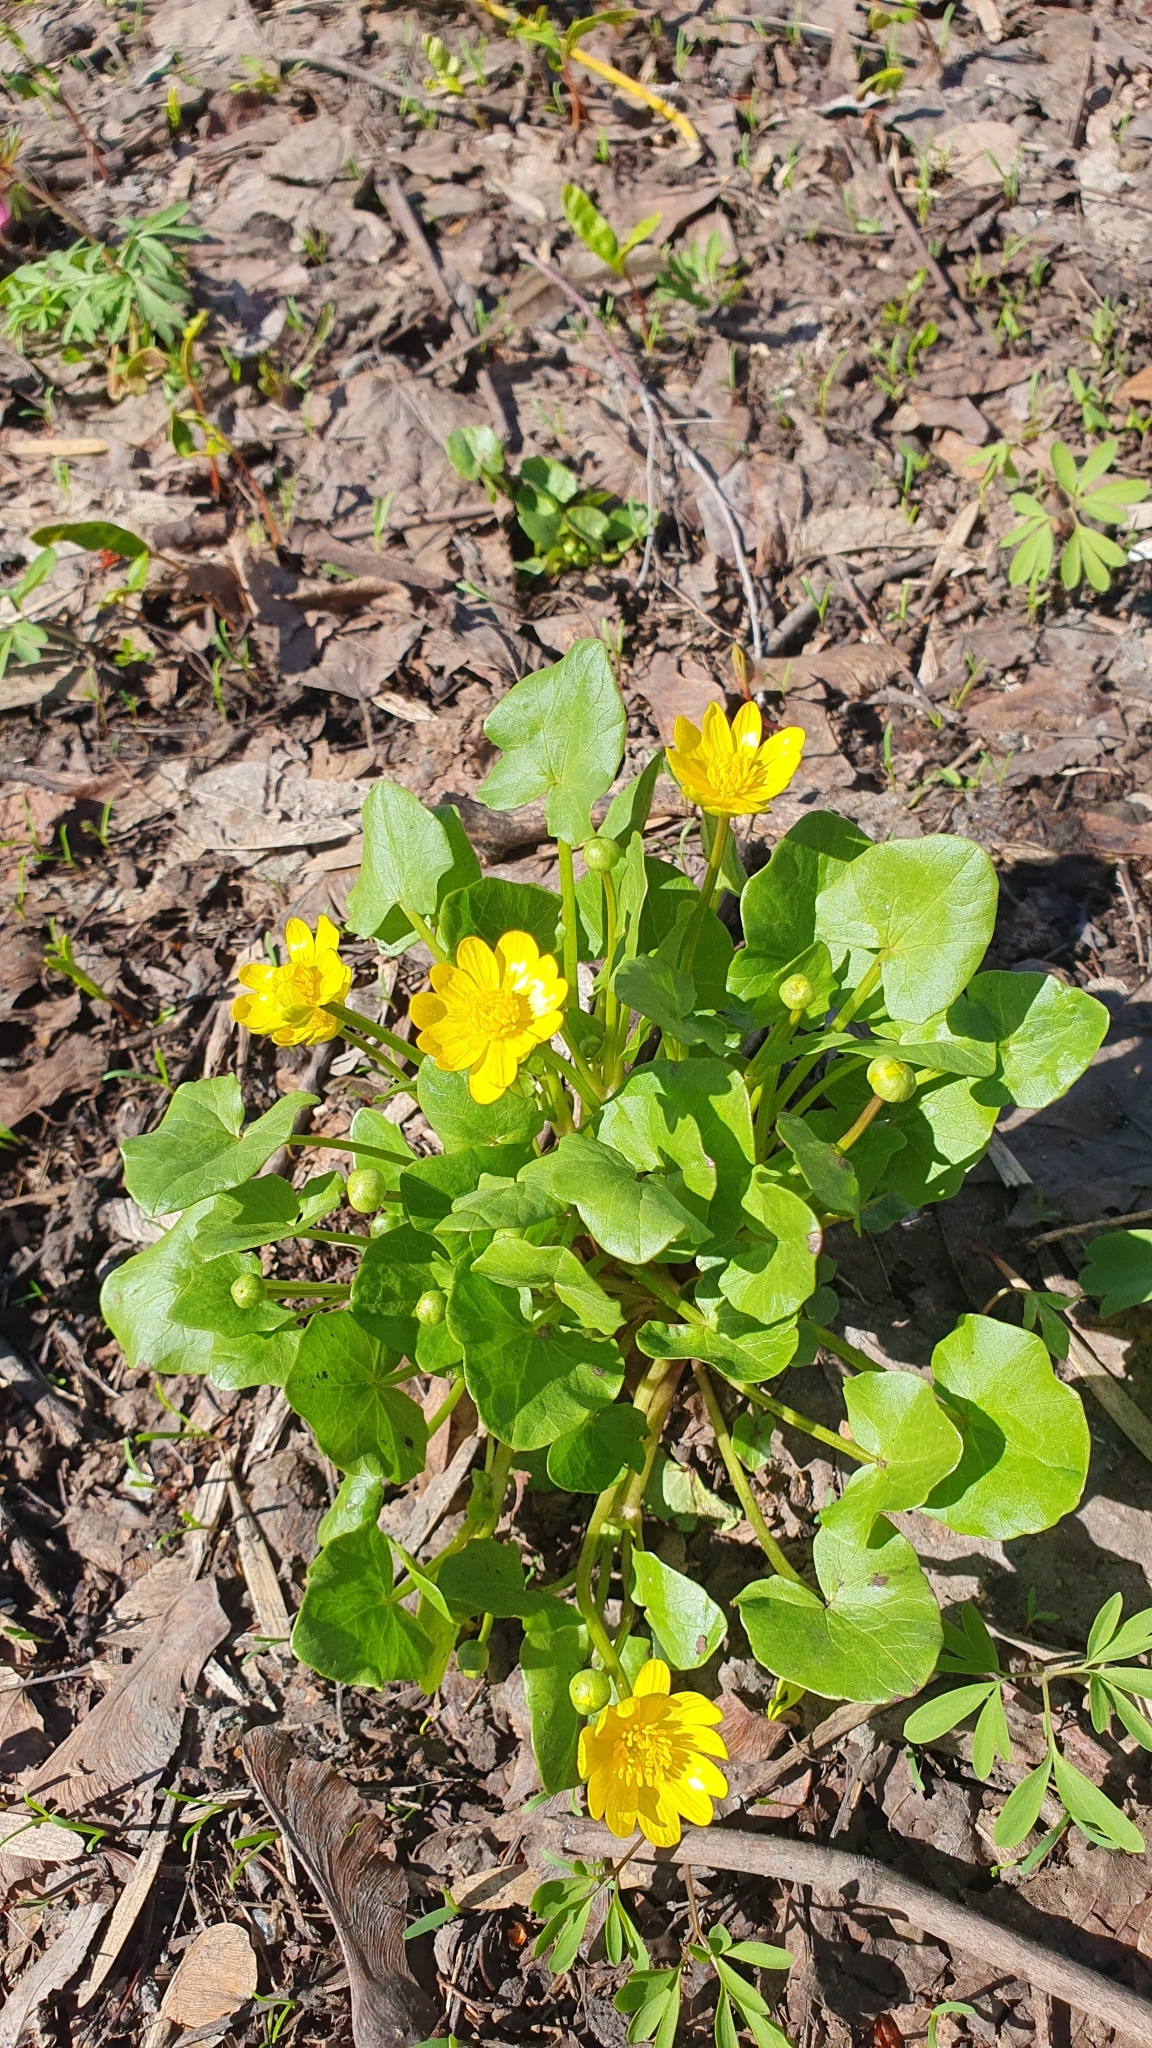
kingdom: Plantae
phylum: Tracheophyta
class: Magnoliopsida
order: Ranunculales
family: Ranunculaceae
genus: Ficaria
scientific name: Ficaria verna
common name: Lesser celandine
